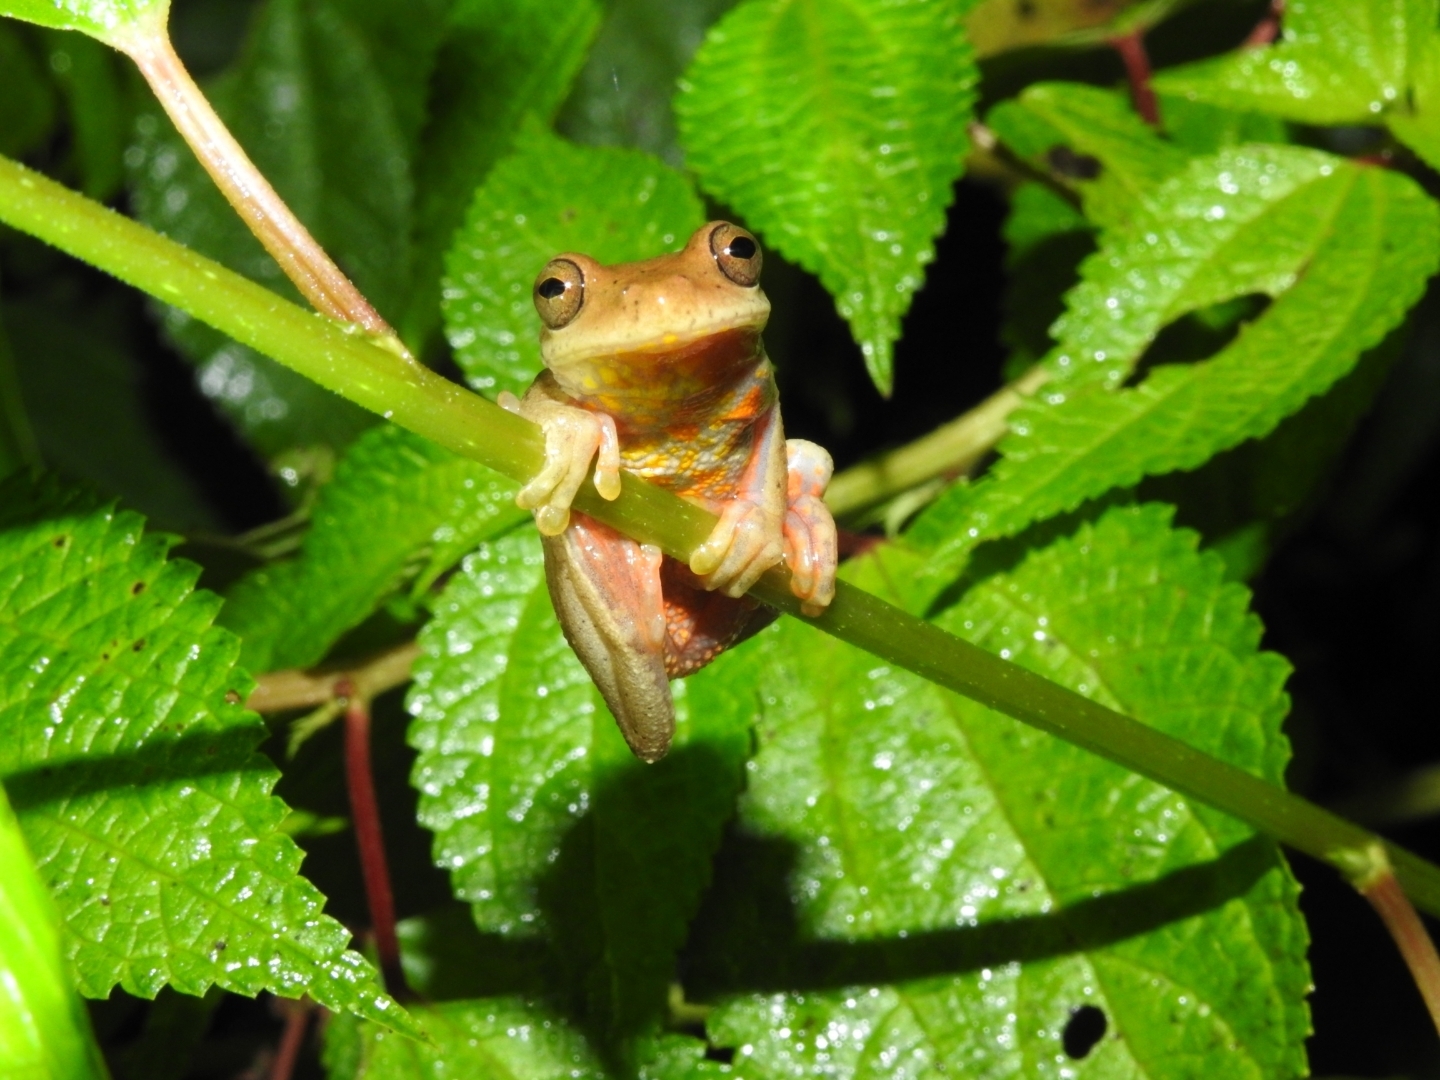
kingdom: Animalia
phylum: Chordata
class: Amphibia
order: Anura
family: Hylidae
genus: Dendropsophus
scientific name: Dendropsophus columbianus
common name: Boettger's colombian treefrog
